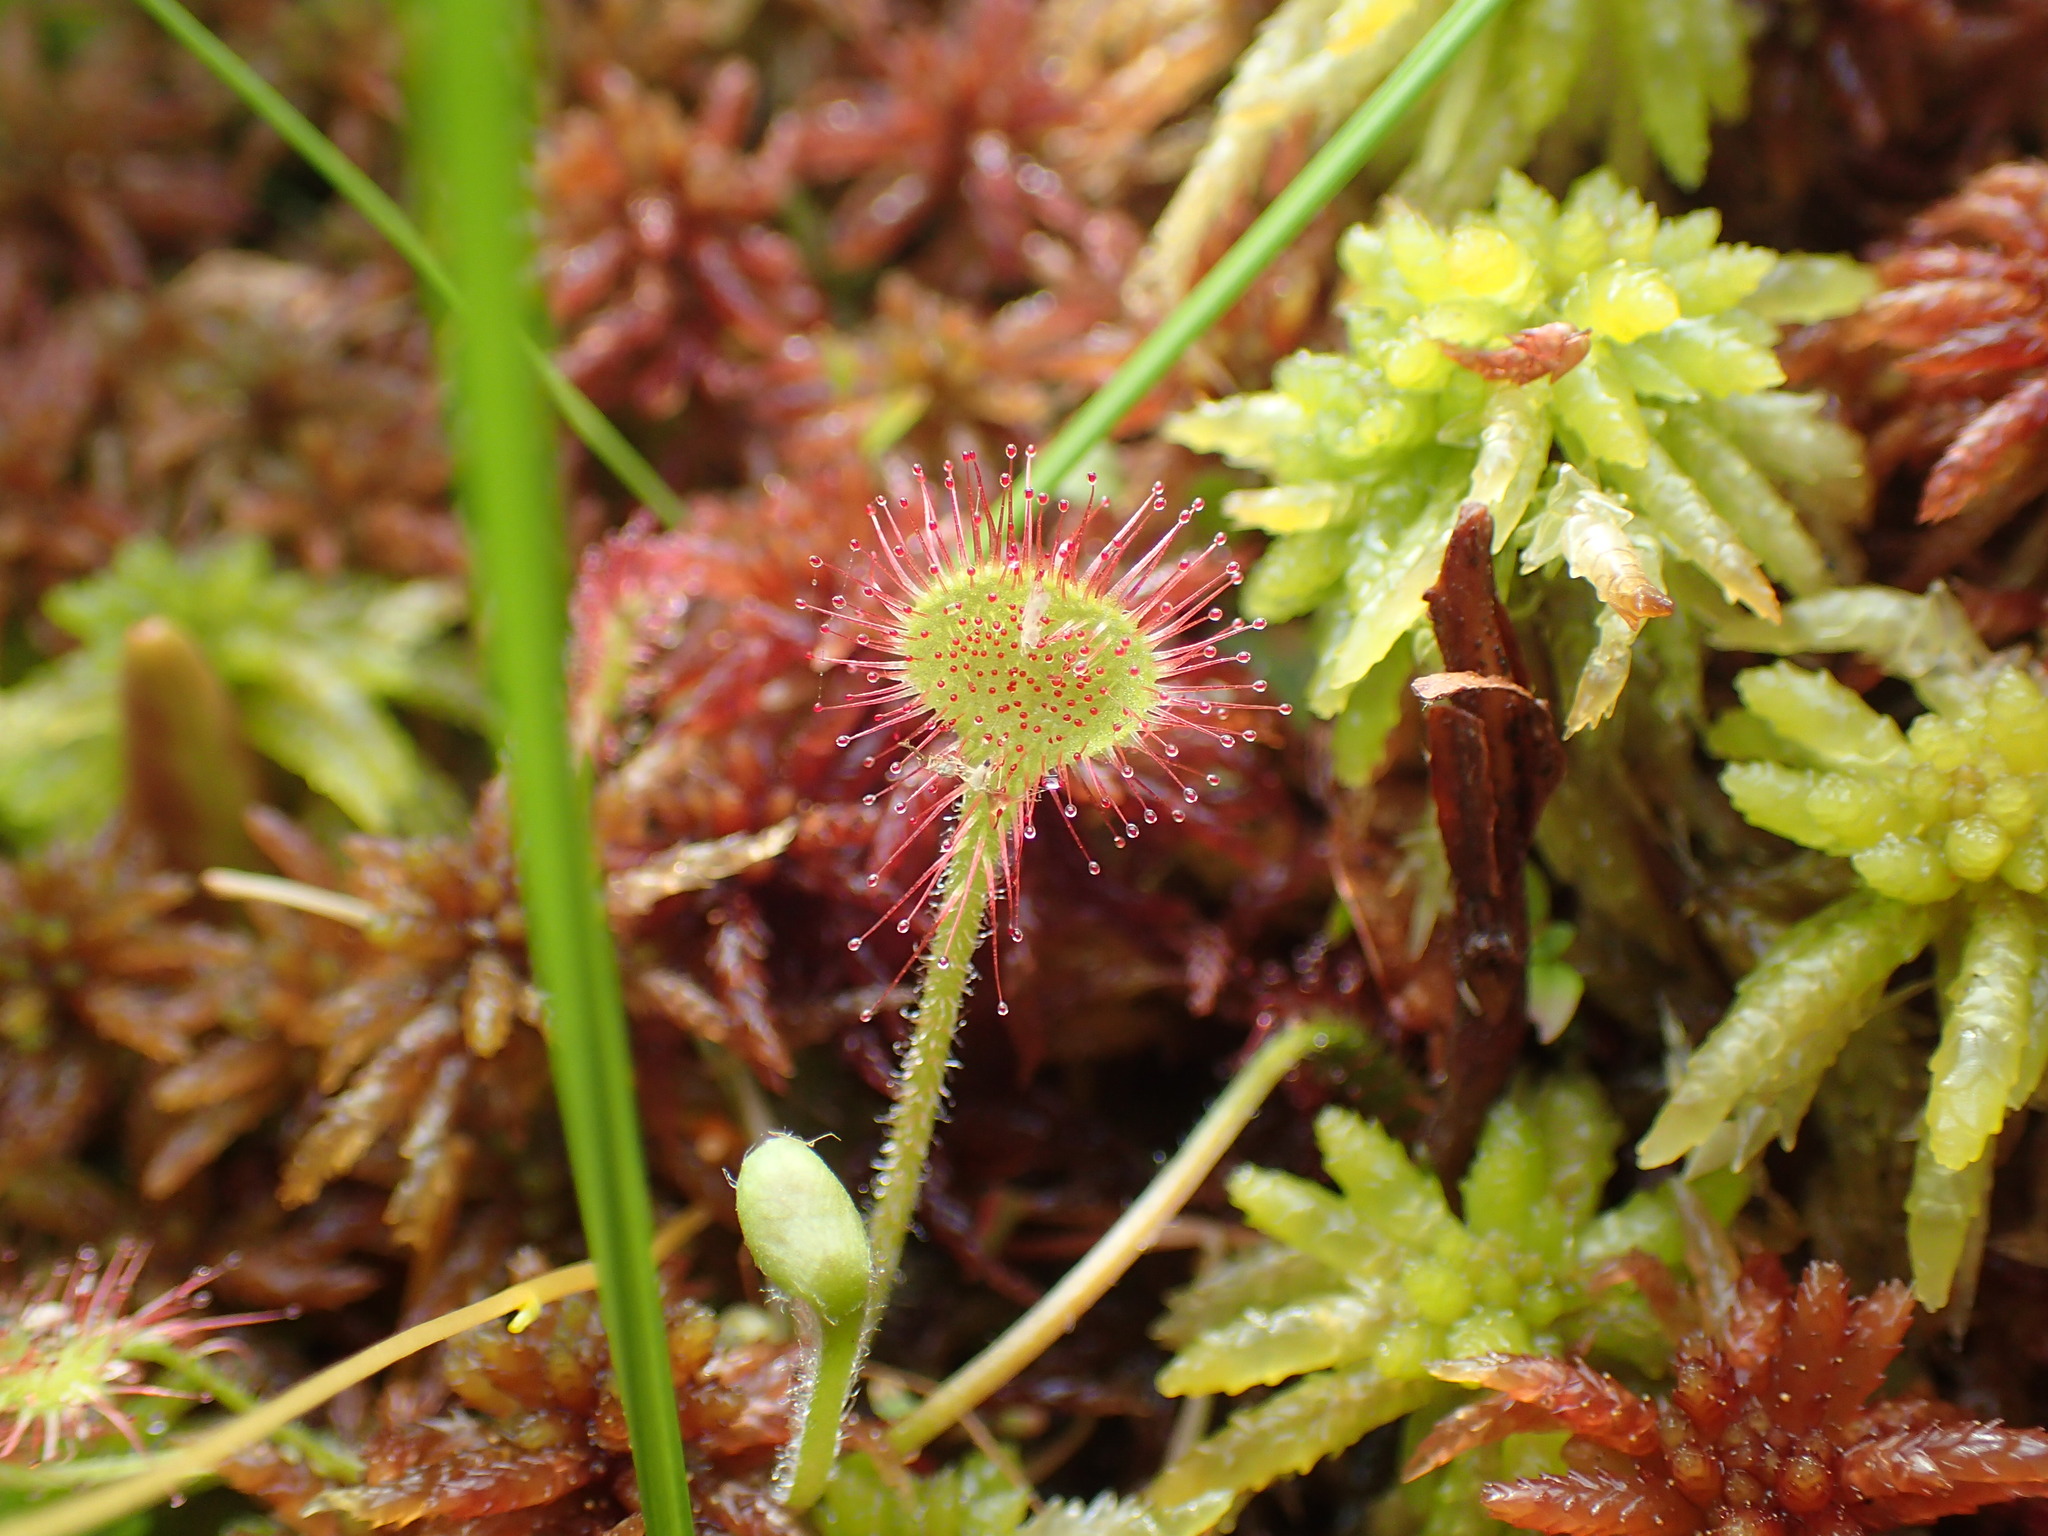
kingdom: Plantae
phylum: Tracheophyta
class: Magnoliopsida
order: Caryophyllales
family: Droseraceae
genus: Drosera
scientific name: Drosera rotundifolia
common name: Round-leaved sundew
